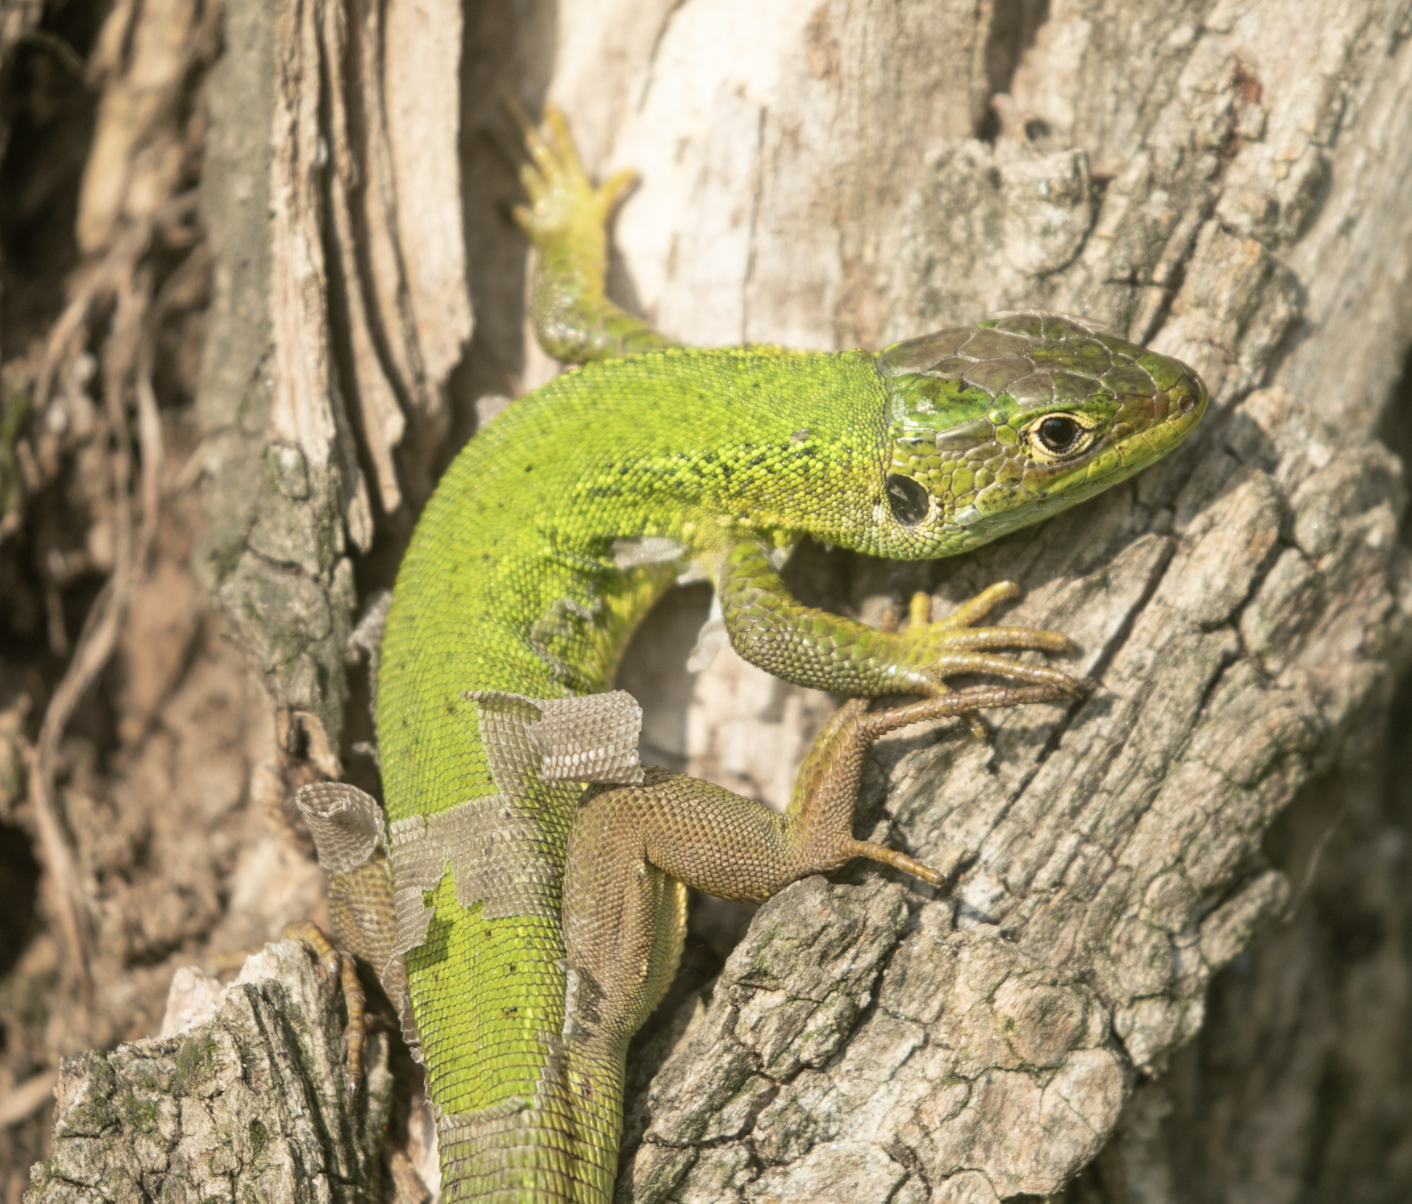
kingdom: Animalia
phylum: Chordata
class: Squamata
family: Lacertidae
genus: Lacerta
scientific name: Lacerta bilineata
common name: Western green lizard
